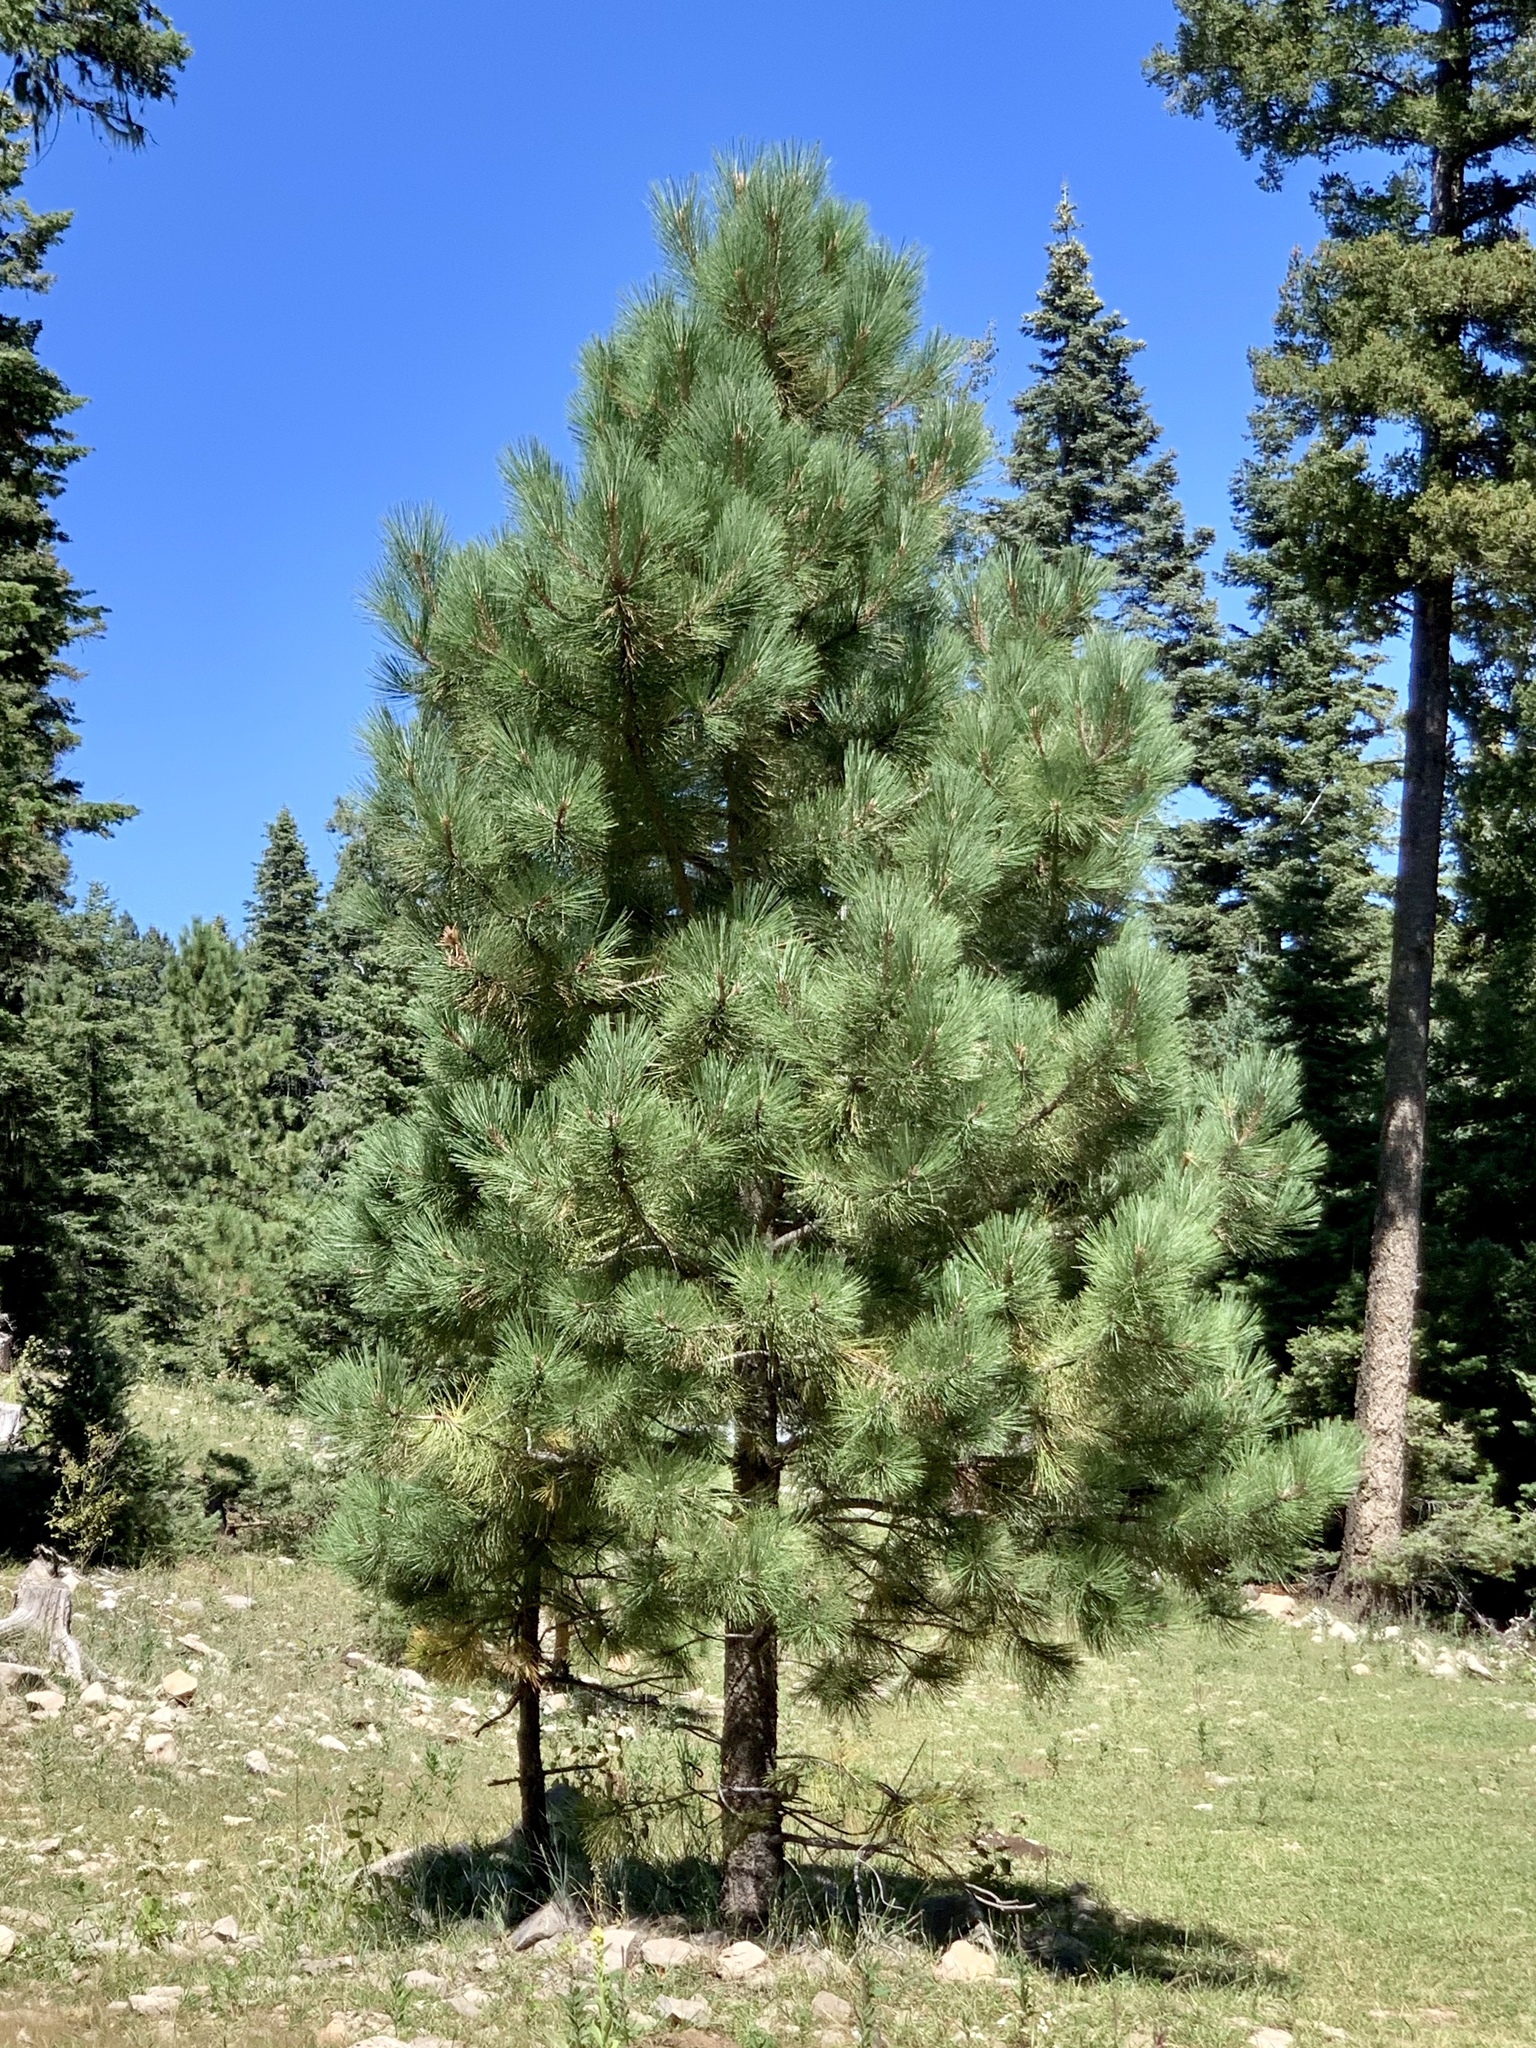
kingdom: Plantae
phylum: Tracheophyta
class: Pinopsida
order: Pinales
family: Pinaceae
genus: Pinus
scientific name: Pinus ponderosa
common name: Western yellow-pine
